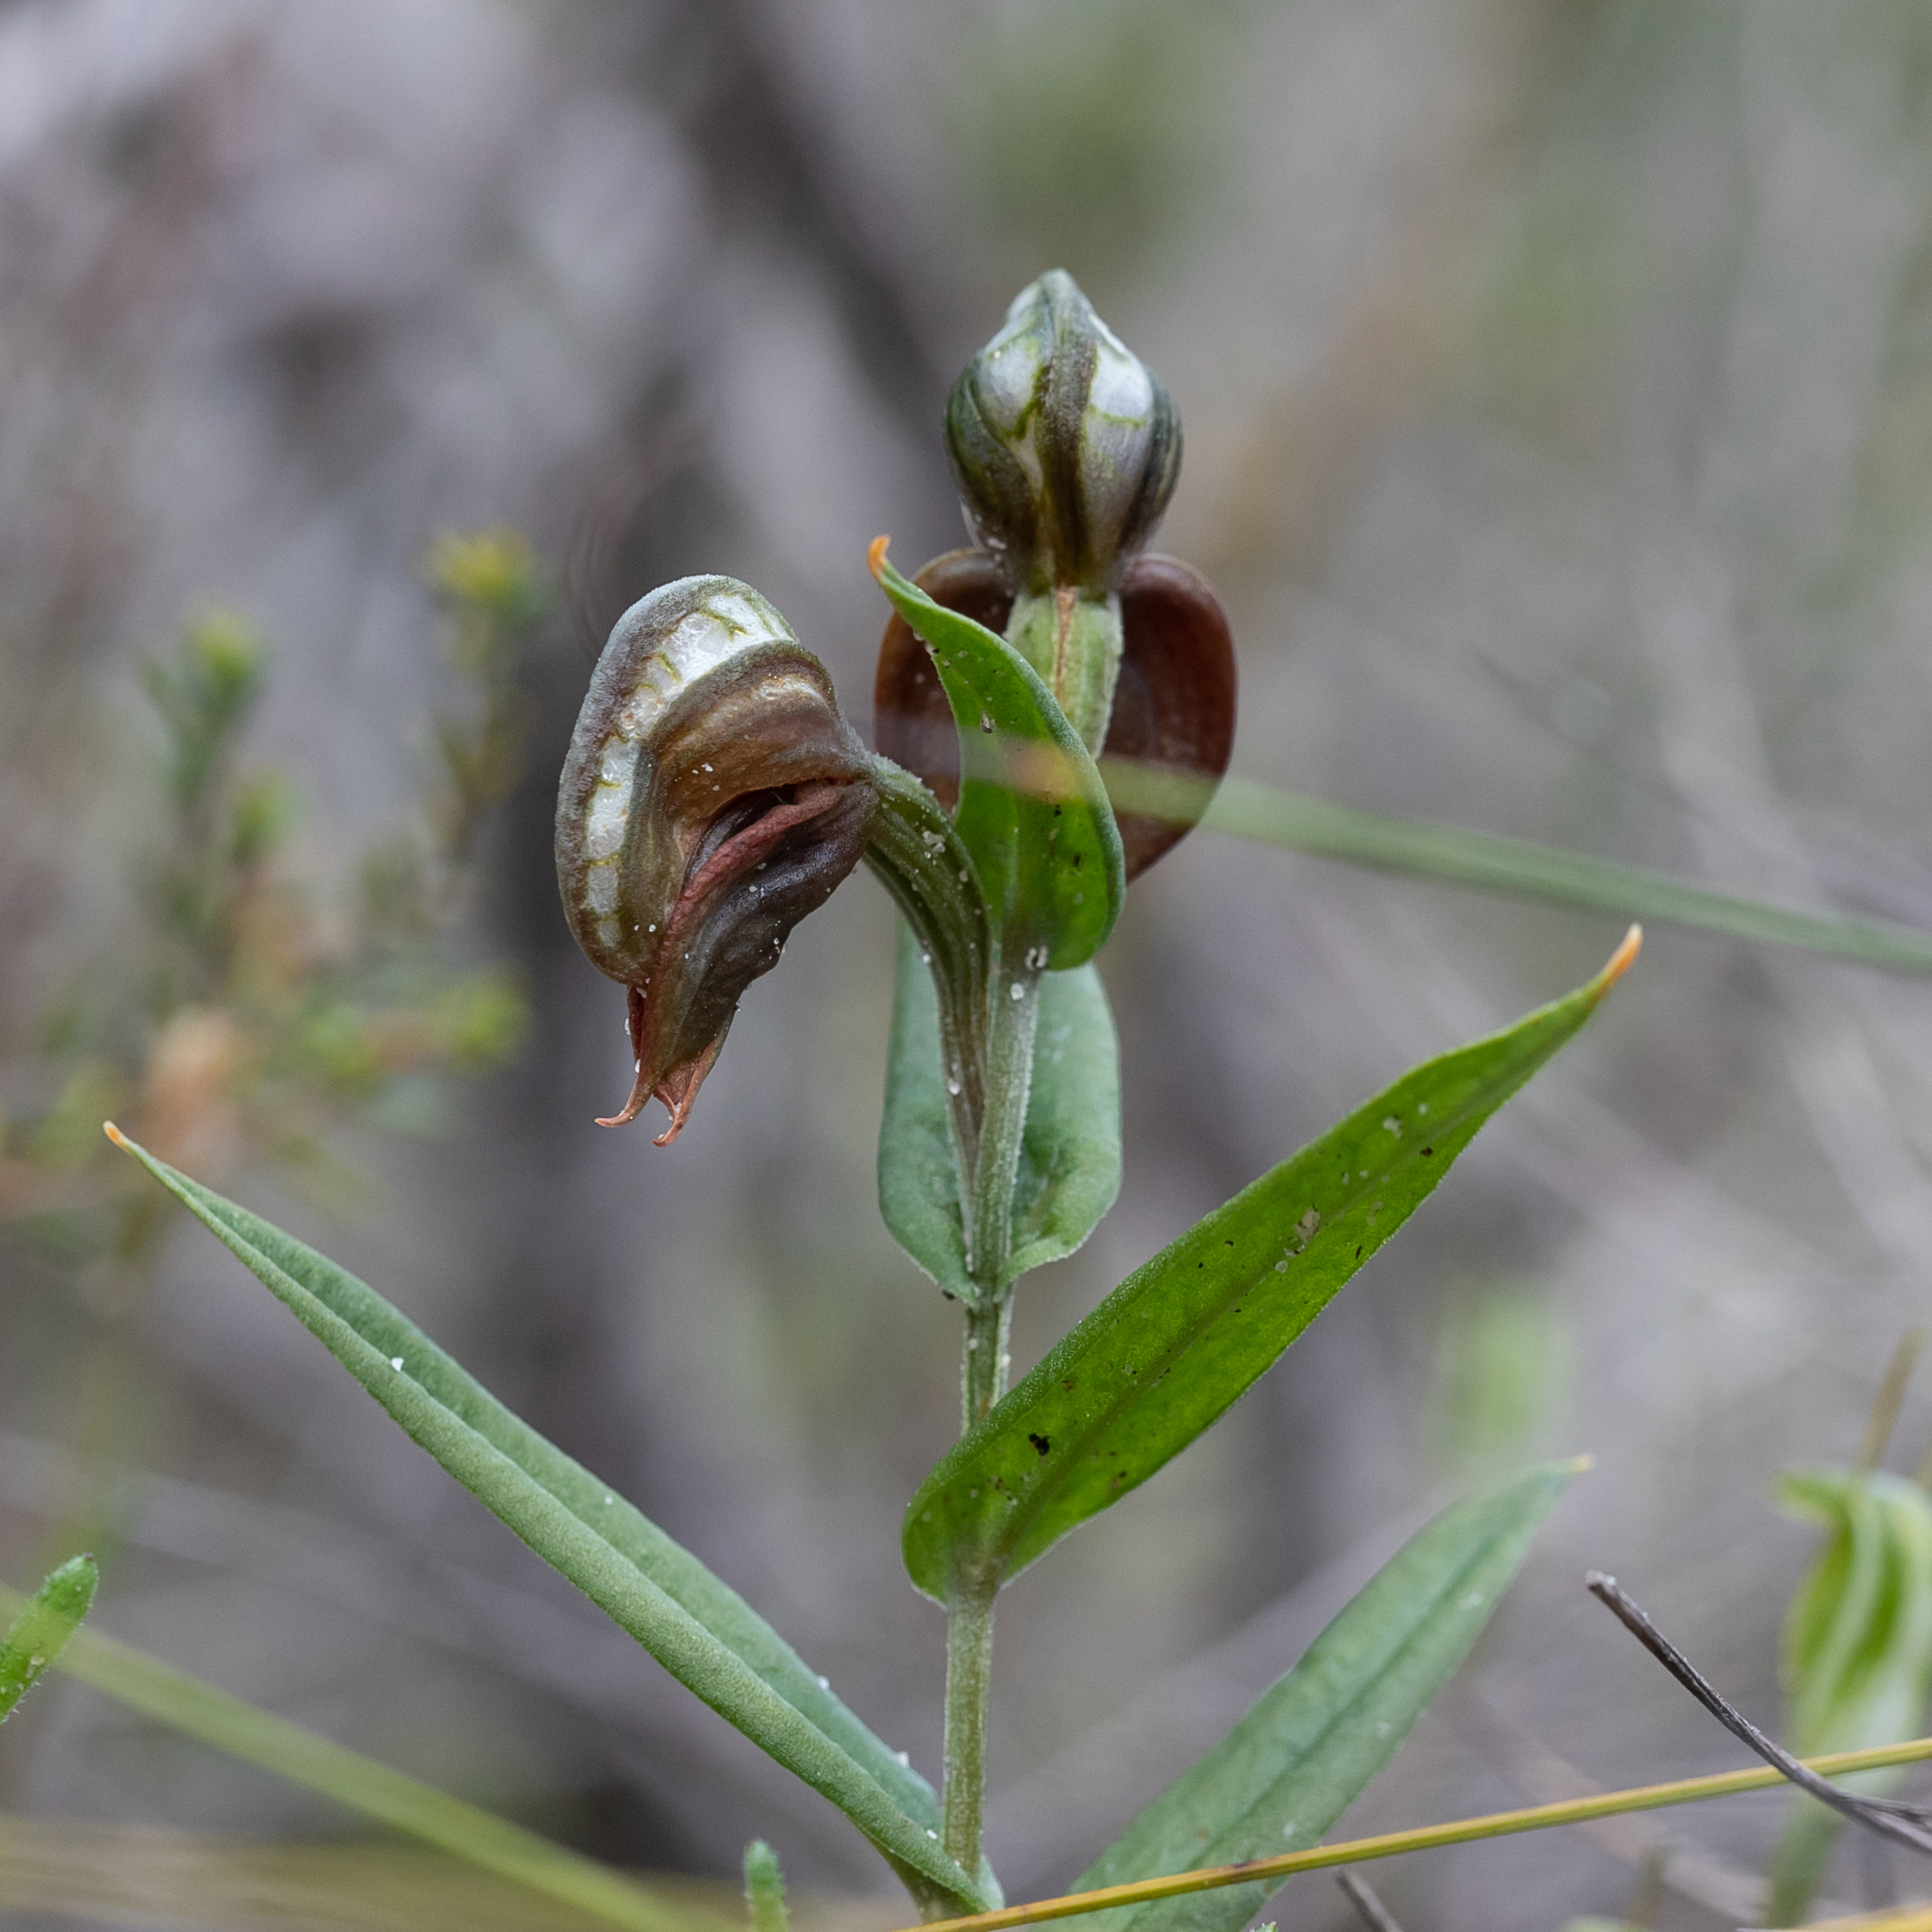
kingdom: Plantae
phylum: Tracheophyta
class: Liliopsida
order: Asparagales
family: Orchidaceae
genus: Pterostylis
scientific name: Pterostylis sanguinea
